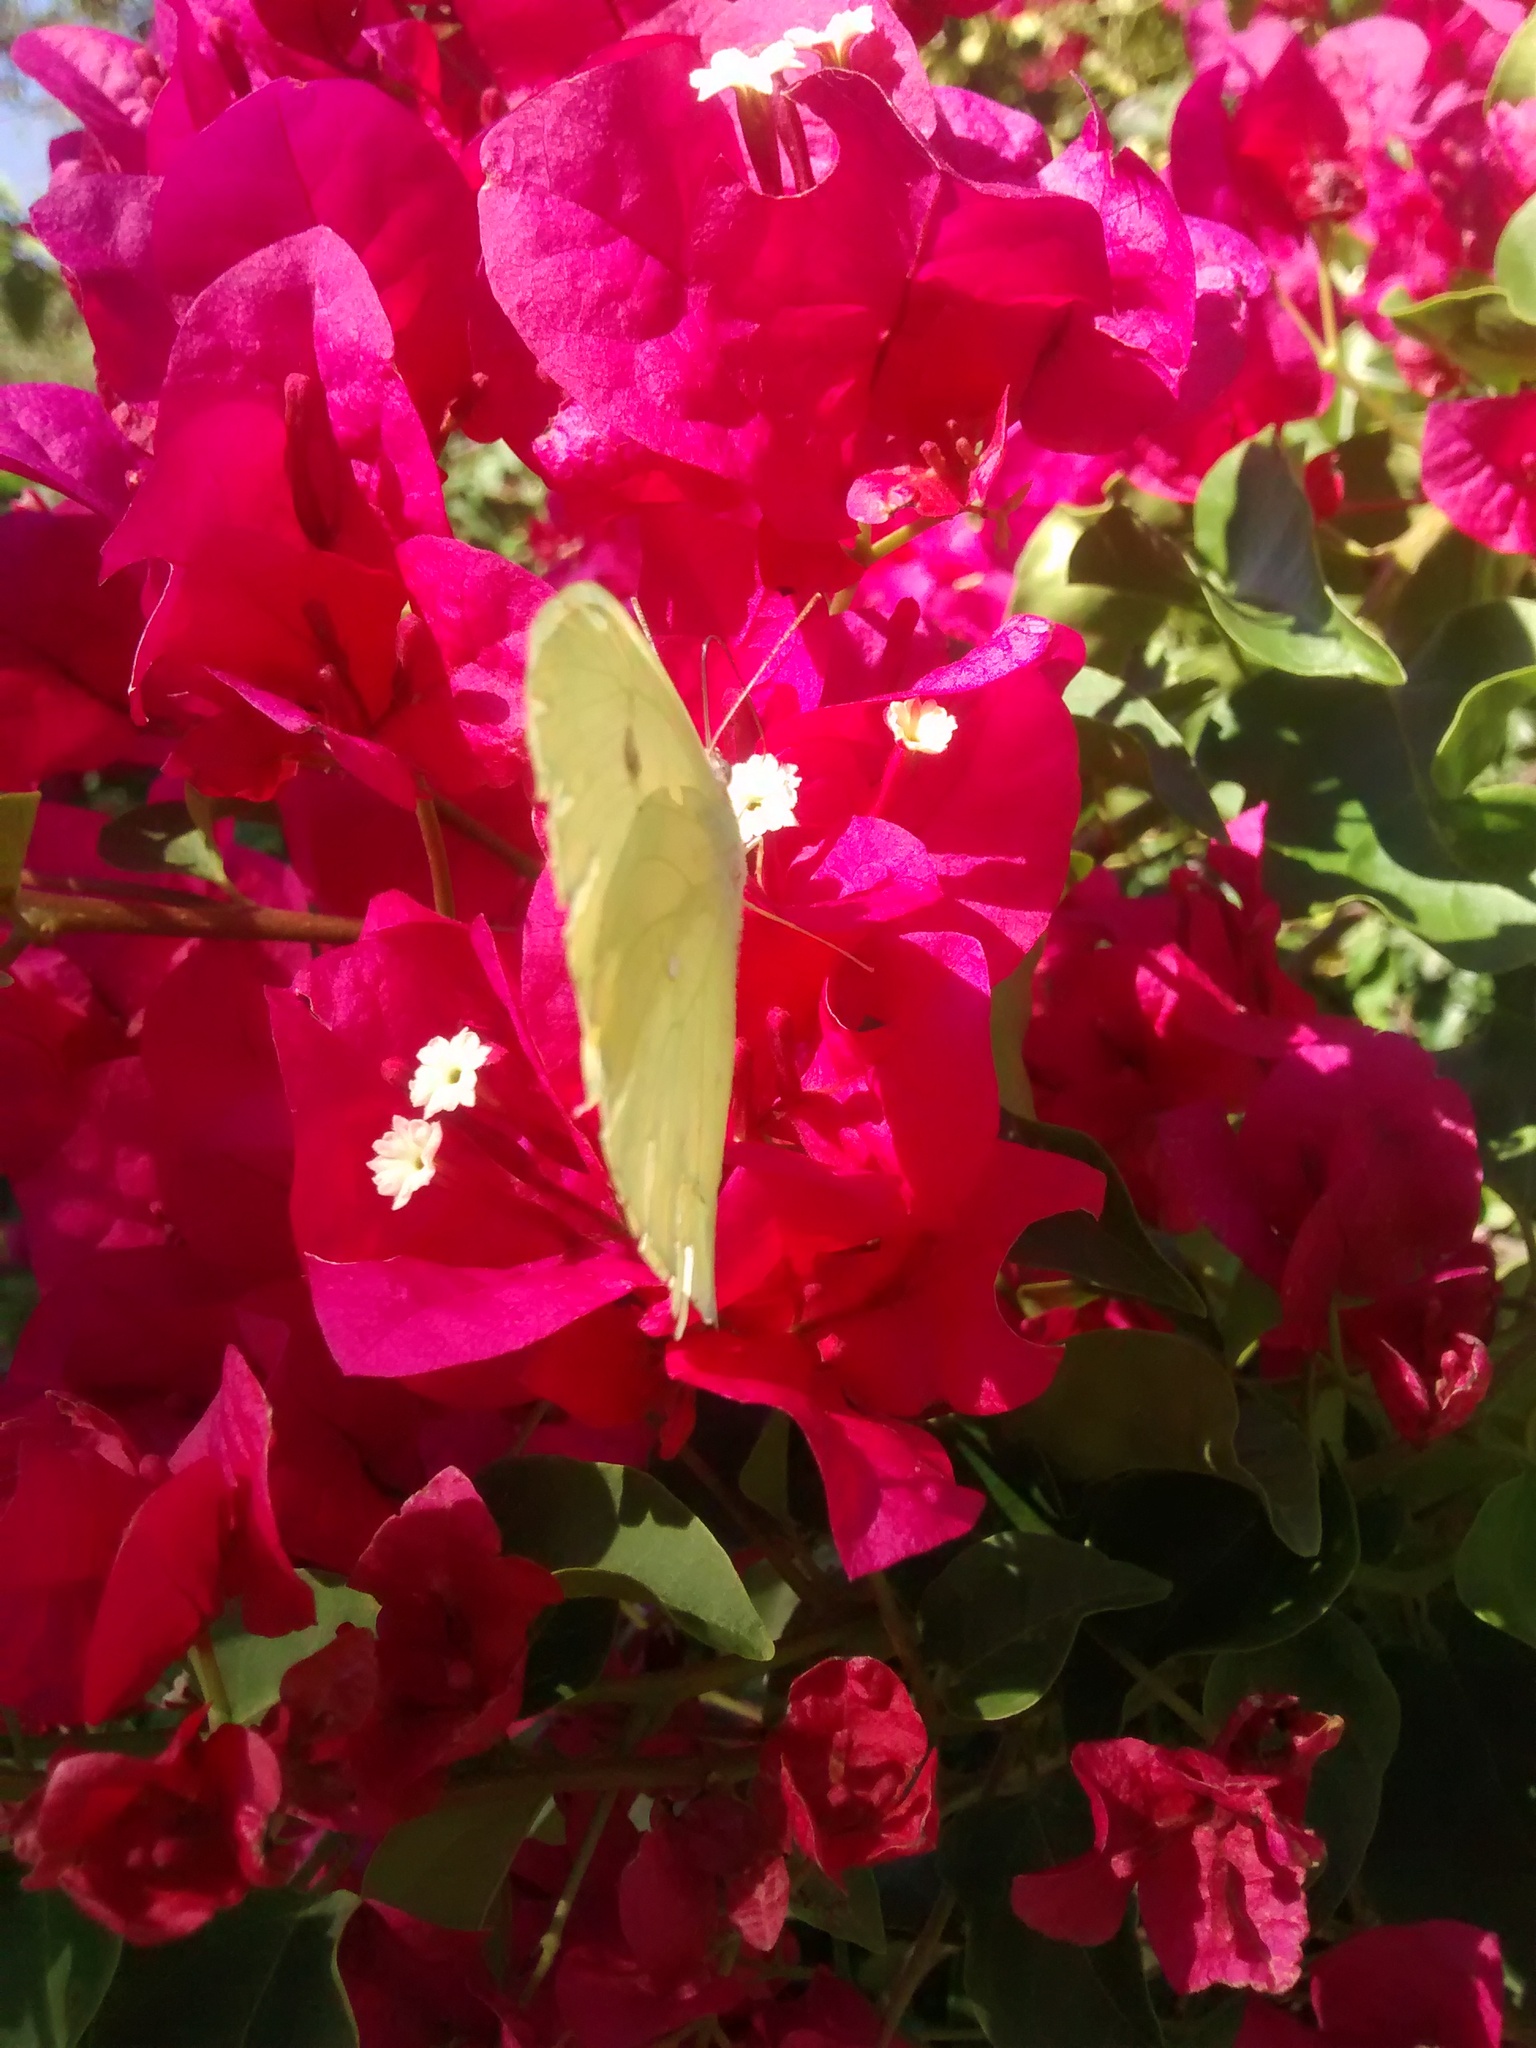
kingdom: Animalia
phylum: Arthropoda
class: Insecta
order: Lepidoptera
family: Pieridae
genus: Phoebis
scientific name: Phoebis neocypris
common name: Tailed sulphur
